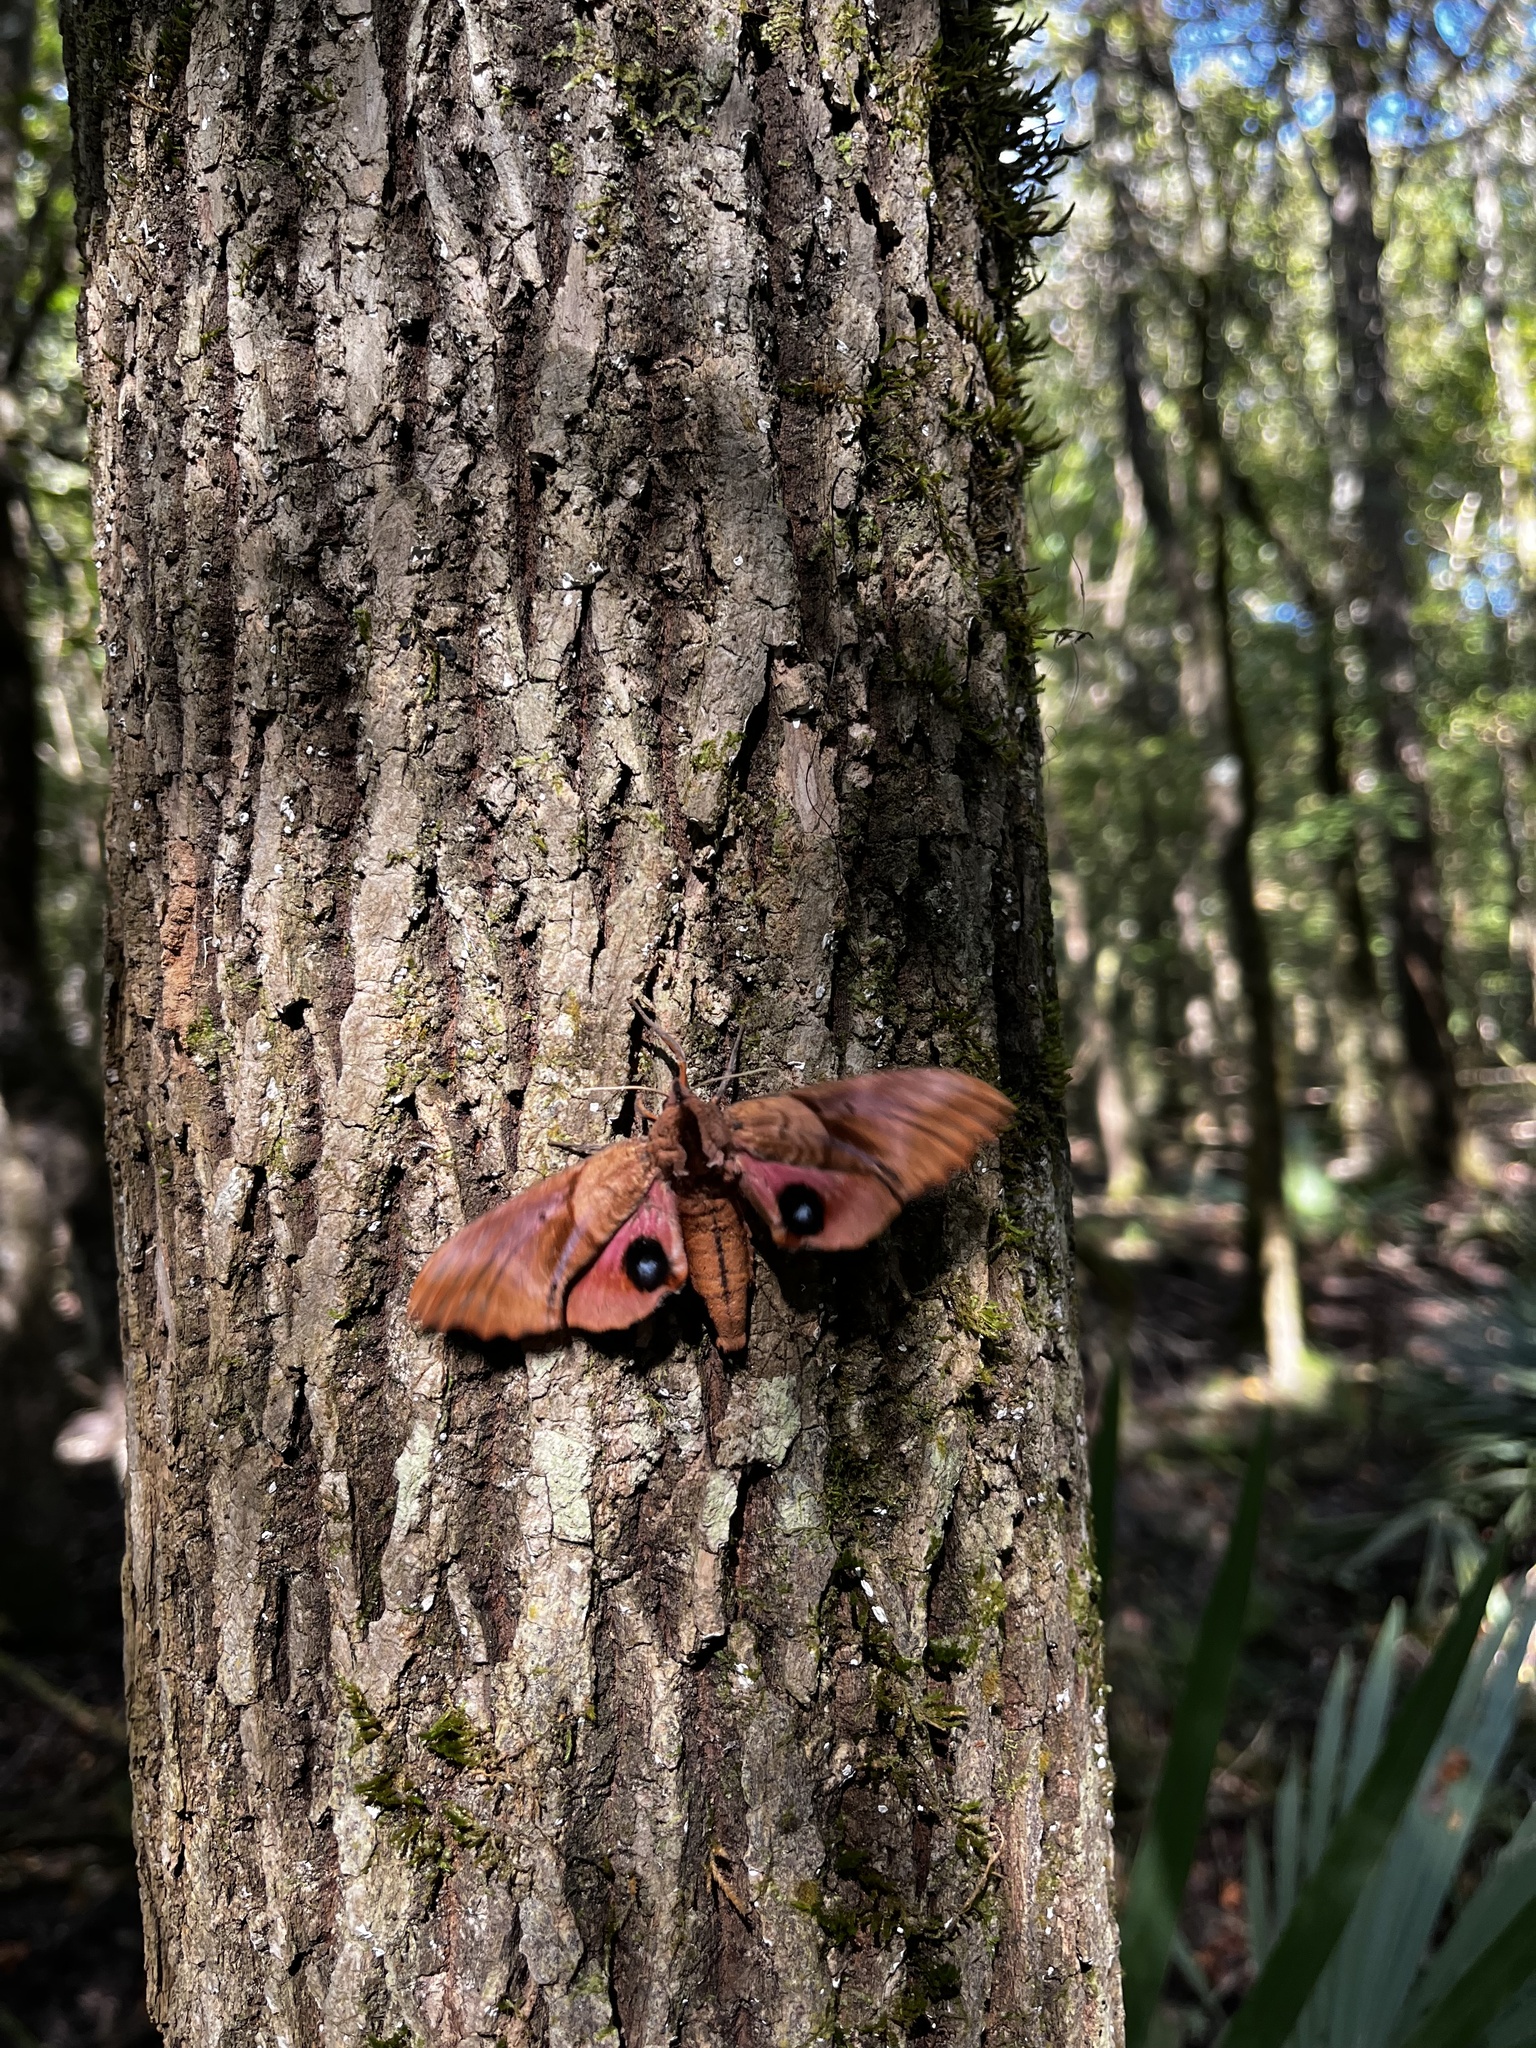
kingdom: Animalia
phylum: Arthropoda
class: Insecta
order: Lepidoptera
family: Sphingidae
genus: Paonias
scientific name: Paonias excaecata
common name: Blind-eyed sphinx
